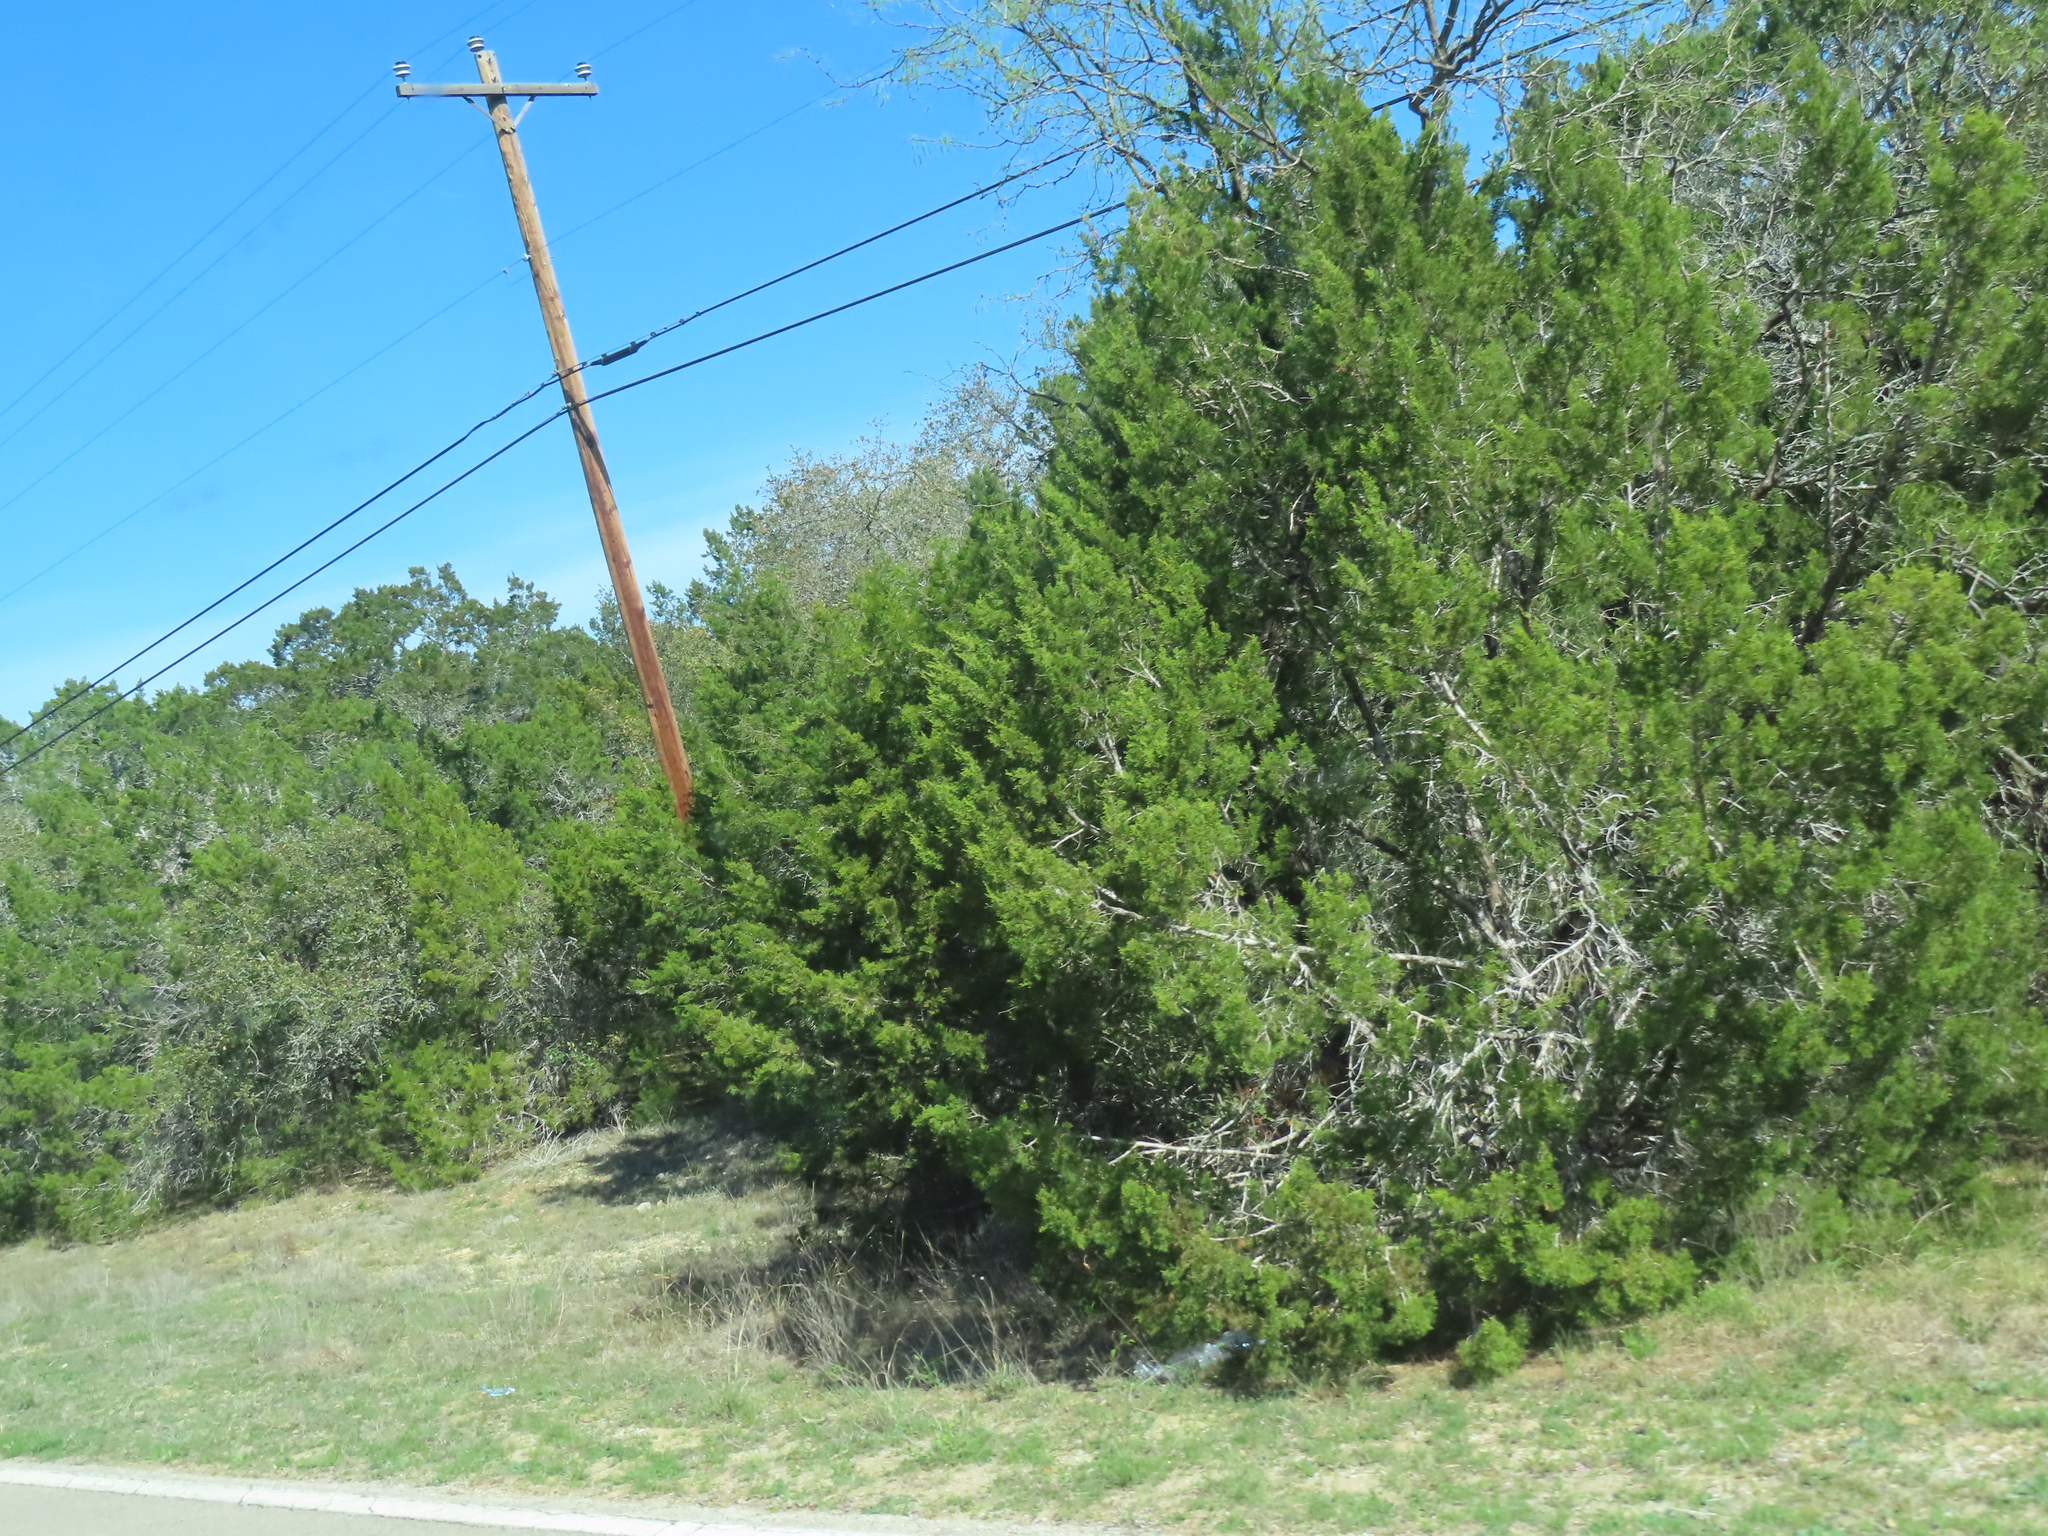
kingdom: Plantae
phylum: Tracheophyta
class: Pinopsida
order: Pinales
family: Cupressaceae
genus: Juniperus
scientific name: Juniperus ashei
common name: Mexican juniper
